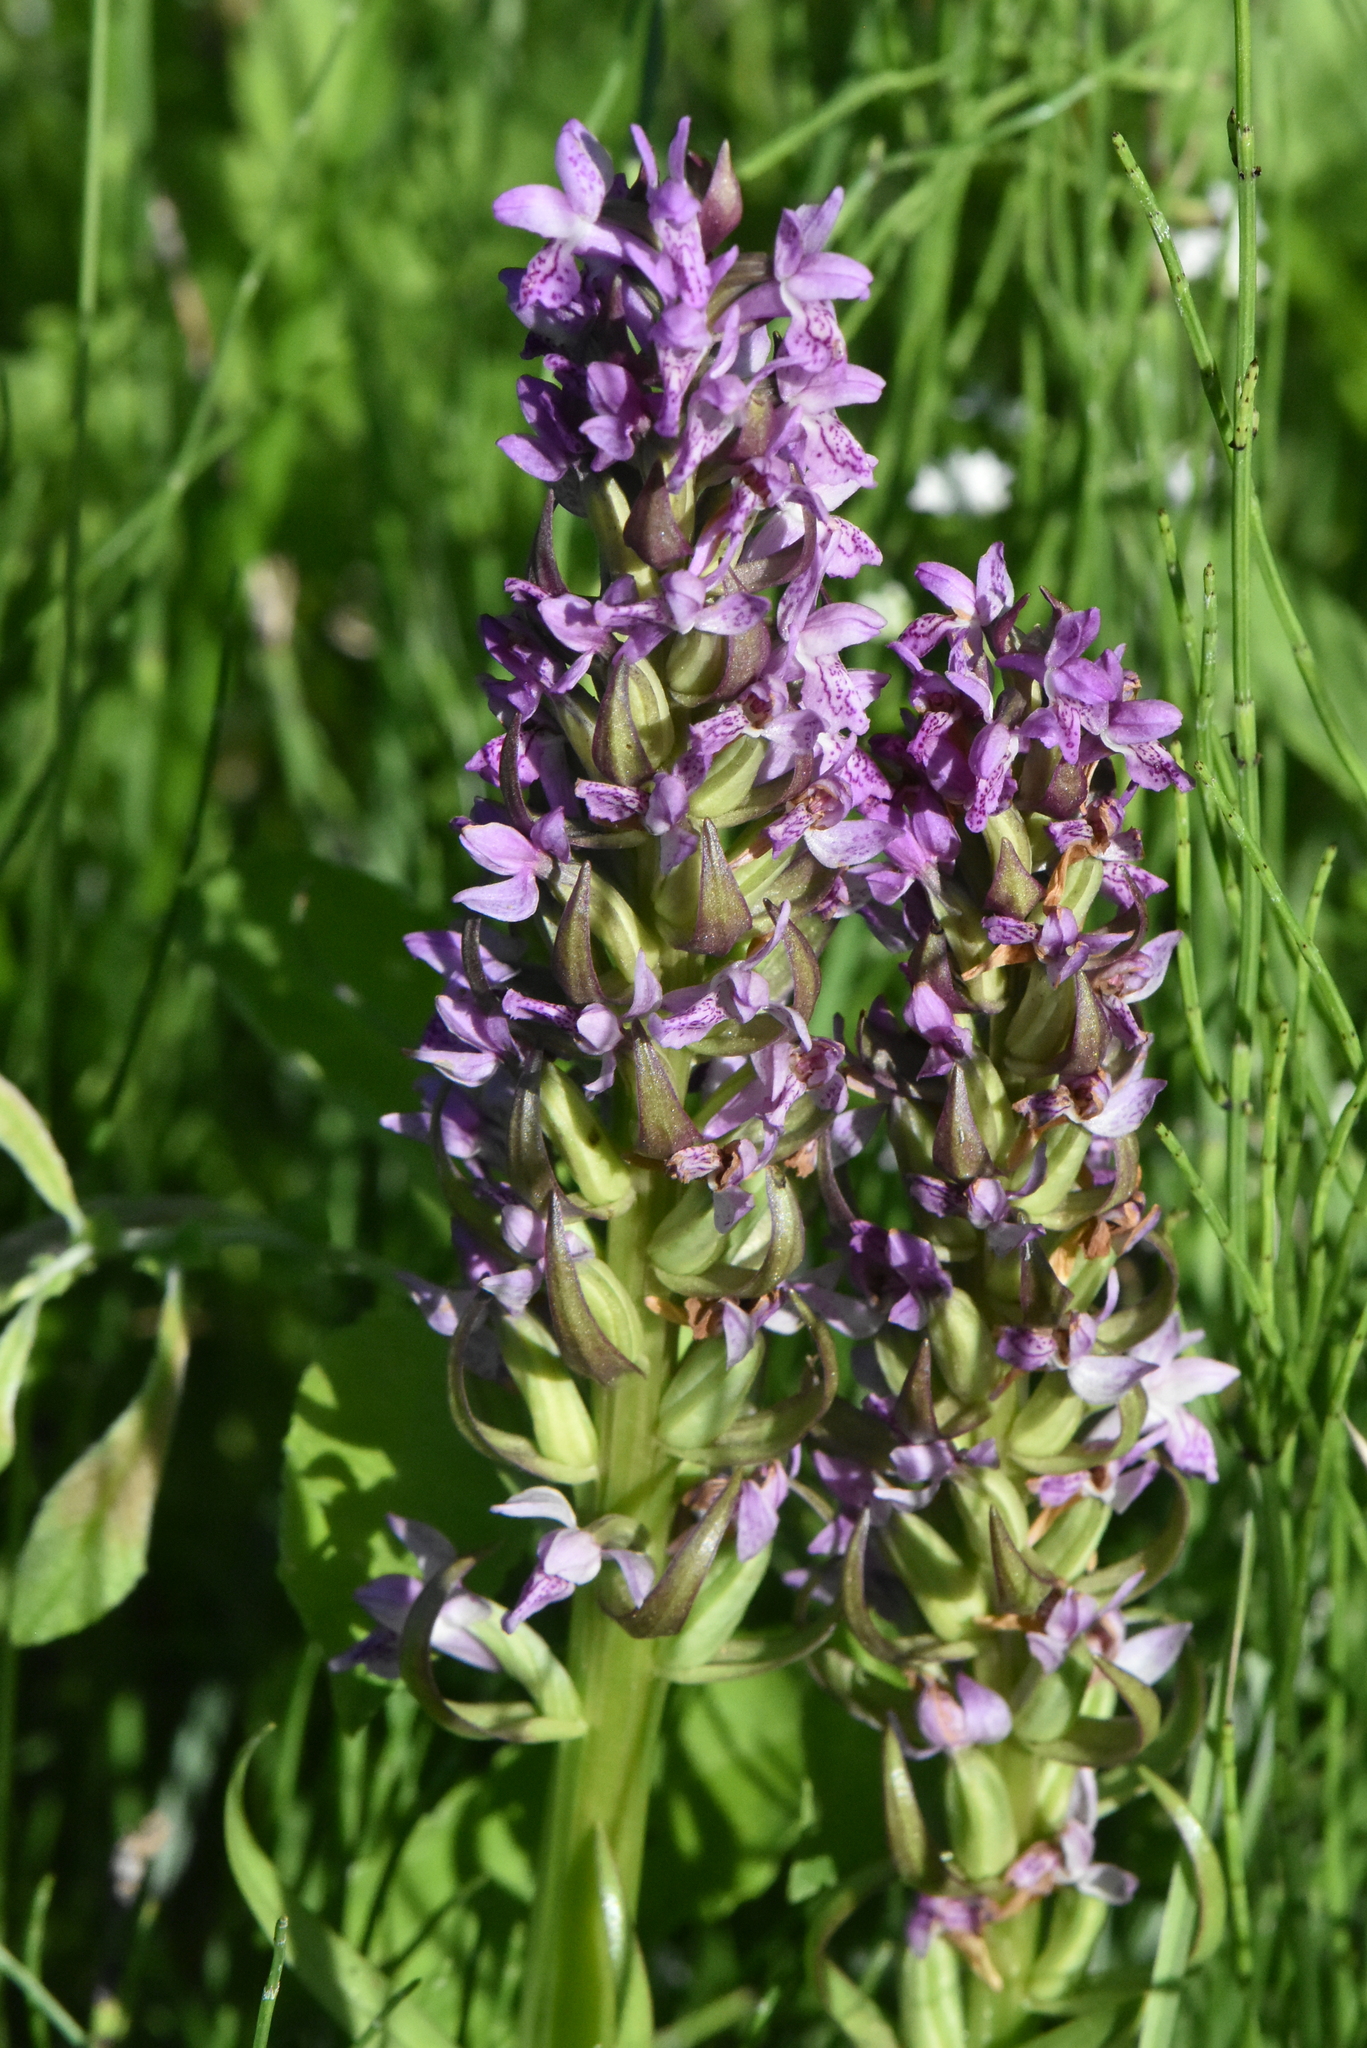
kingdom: Plantae
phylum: Tracheophyta
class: Liliopsida
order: Asparagales
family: Orchidaceae
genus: Dactylorhiza
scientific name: Dactylorhiza incarnata
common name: Early marsh-orchid
